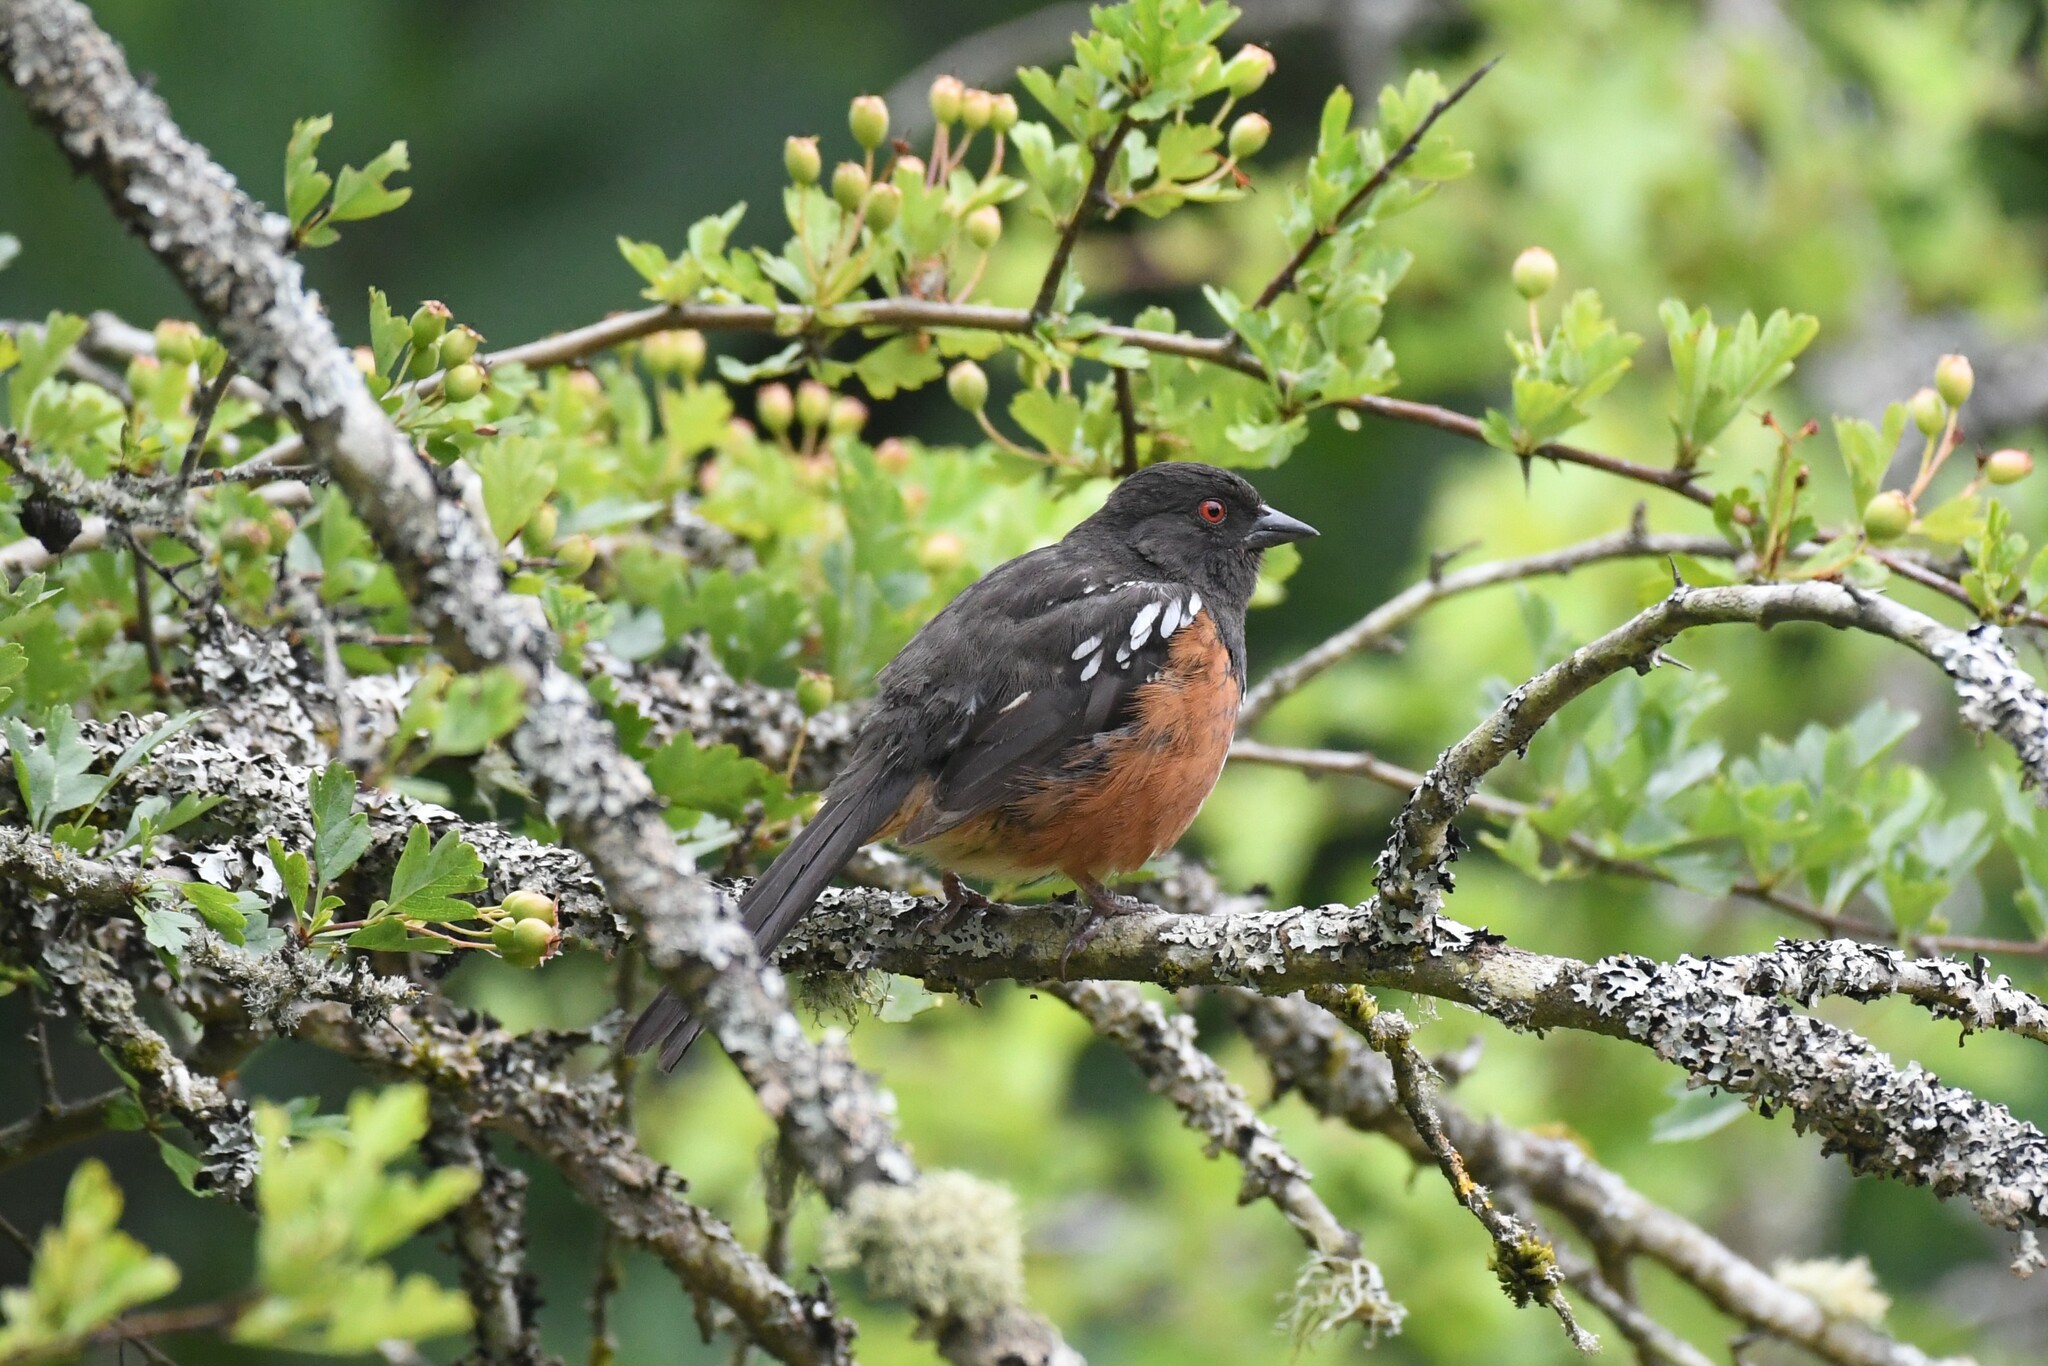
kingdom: Animalia
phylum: Chordata
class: Aves
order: Passeriformes
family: Passerellidae
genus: Pipilo
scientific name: Pipilo maculatus
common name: Spotted towhee
